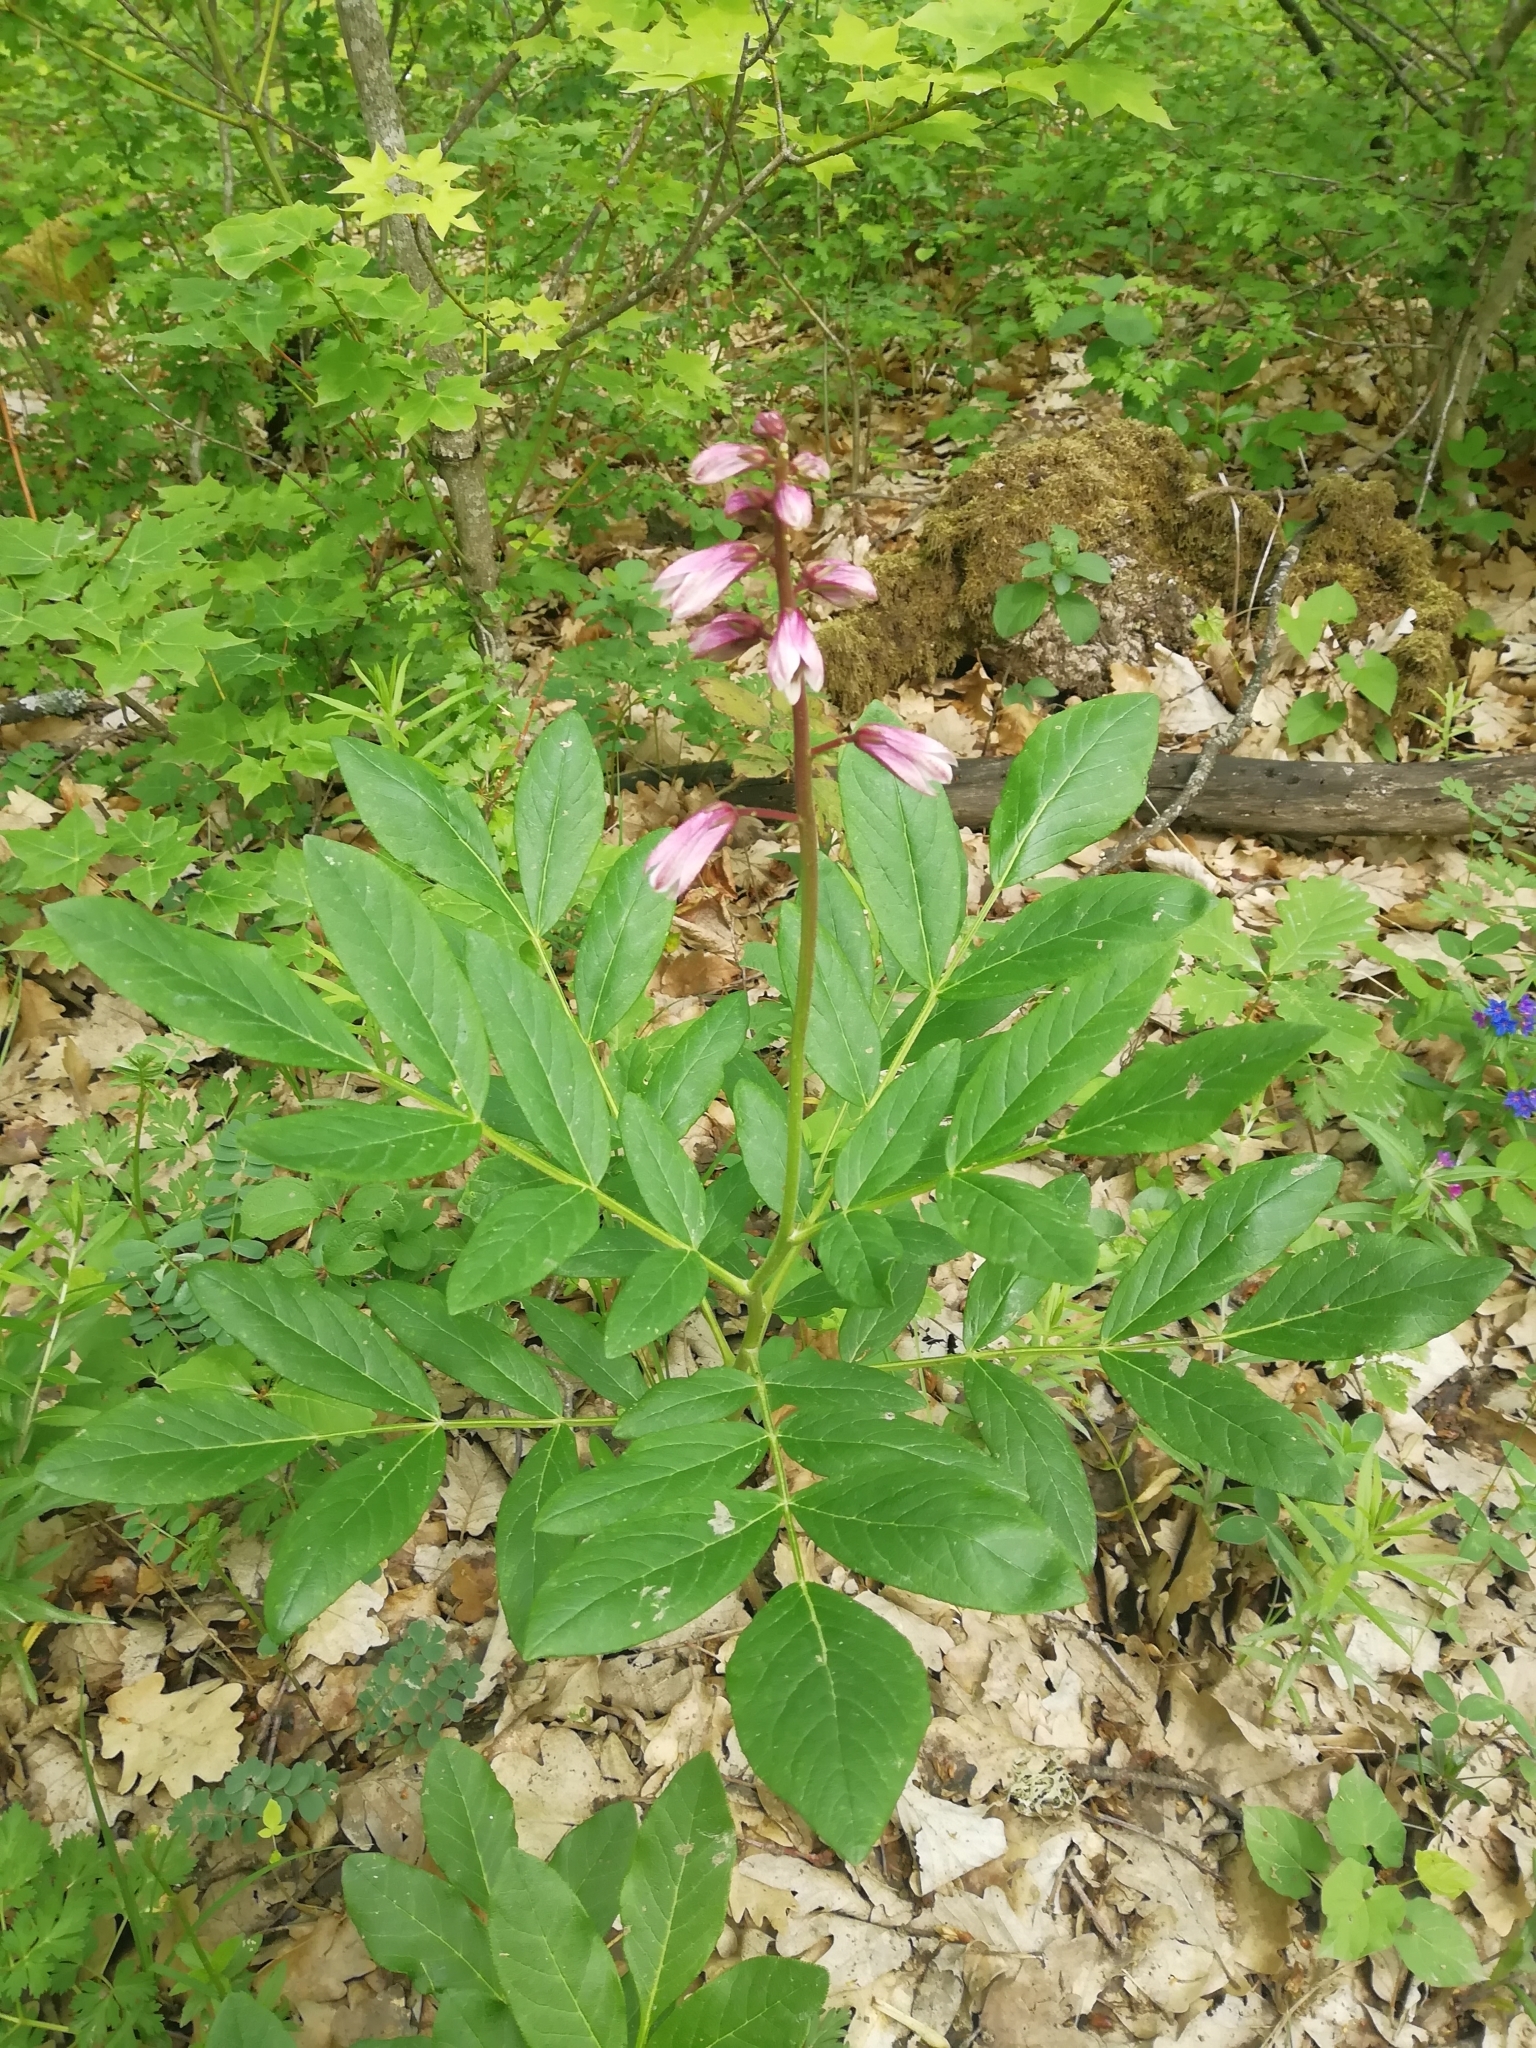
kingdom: Plantae
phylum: Tracheophyta
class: Magnoliopsida
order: Sapindales
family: Rutaceae
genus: Dictamnus
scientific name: Dictamnus albus
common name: Gasplant
